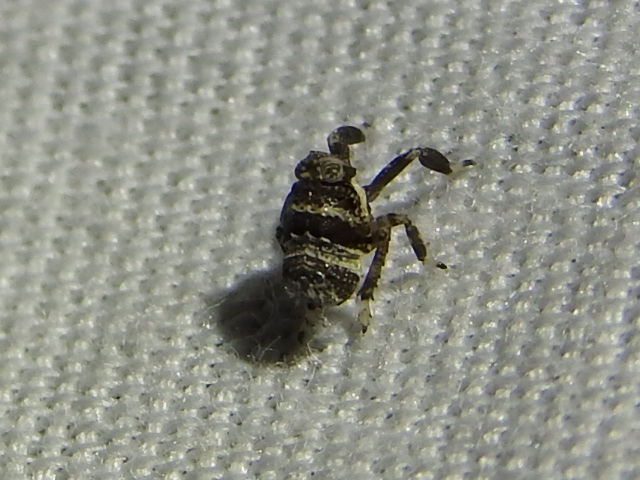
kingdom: Animalia
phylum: Arthropoda
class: Insecta
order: Hemiptera
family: Achilidae
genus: Isodaemon
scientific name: Isodaemon orontes
